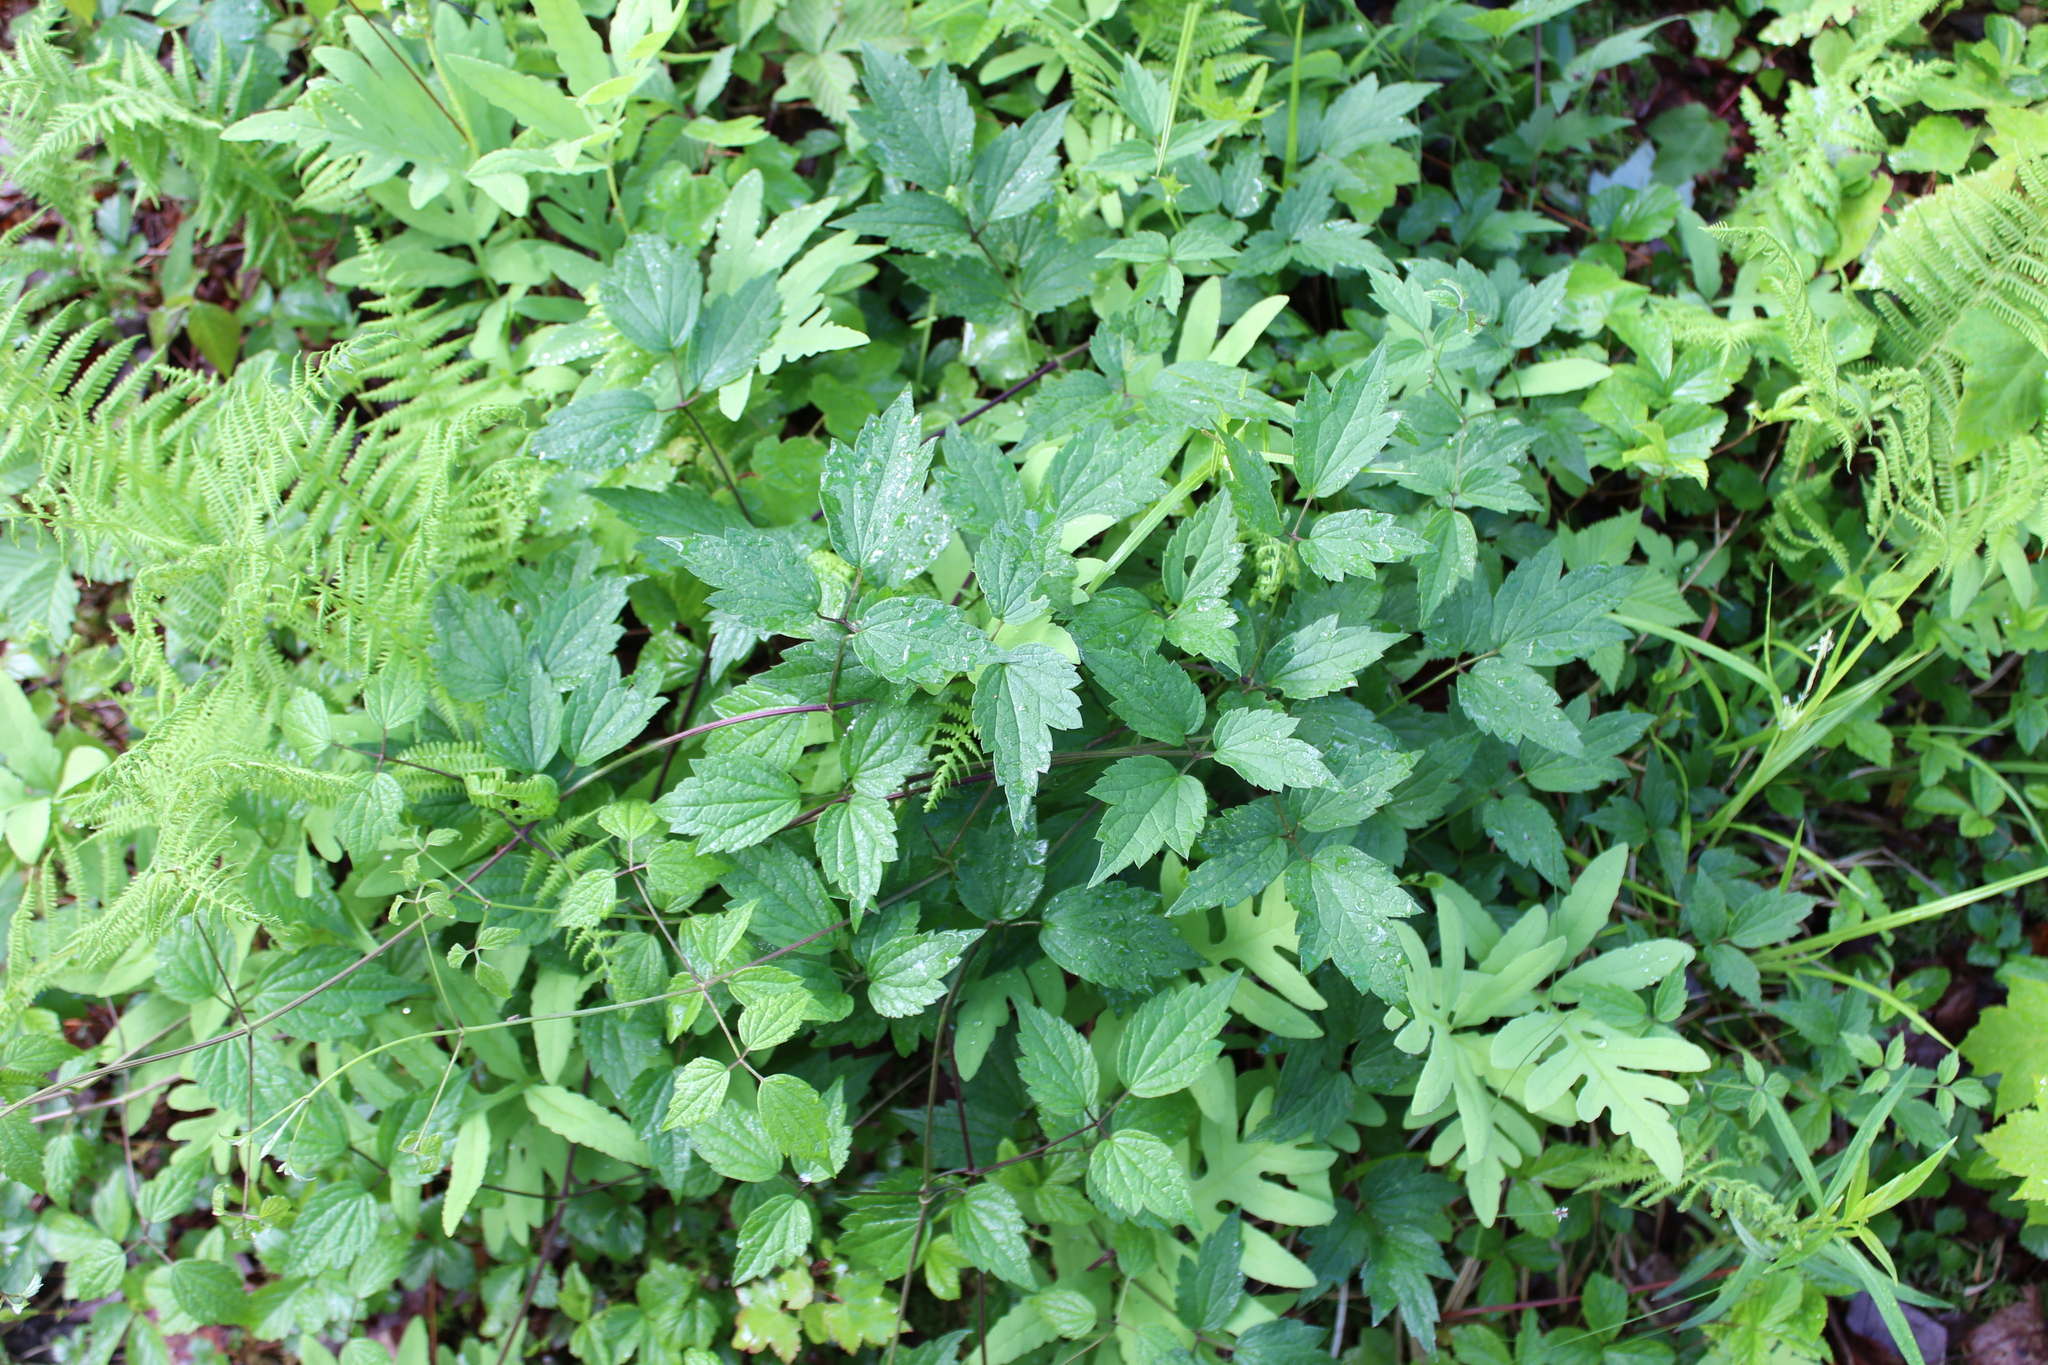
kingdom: Plantae
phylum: Tracheophyta
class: Magnoliopsida
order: Ranunculales
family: Ranunculaceae
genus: Clematis
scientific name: Clematis virginiana
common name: Virgin's-bower
